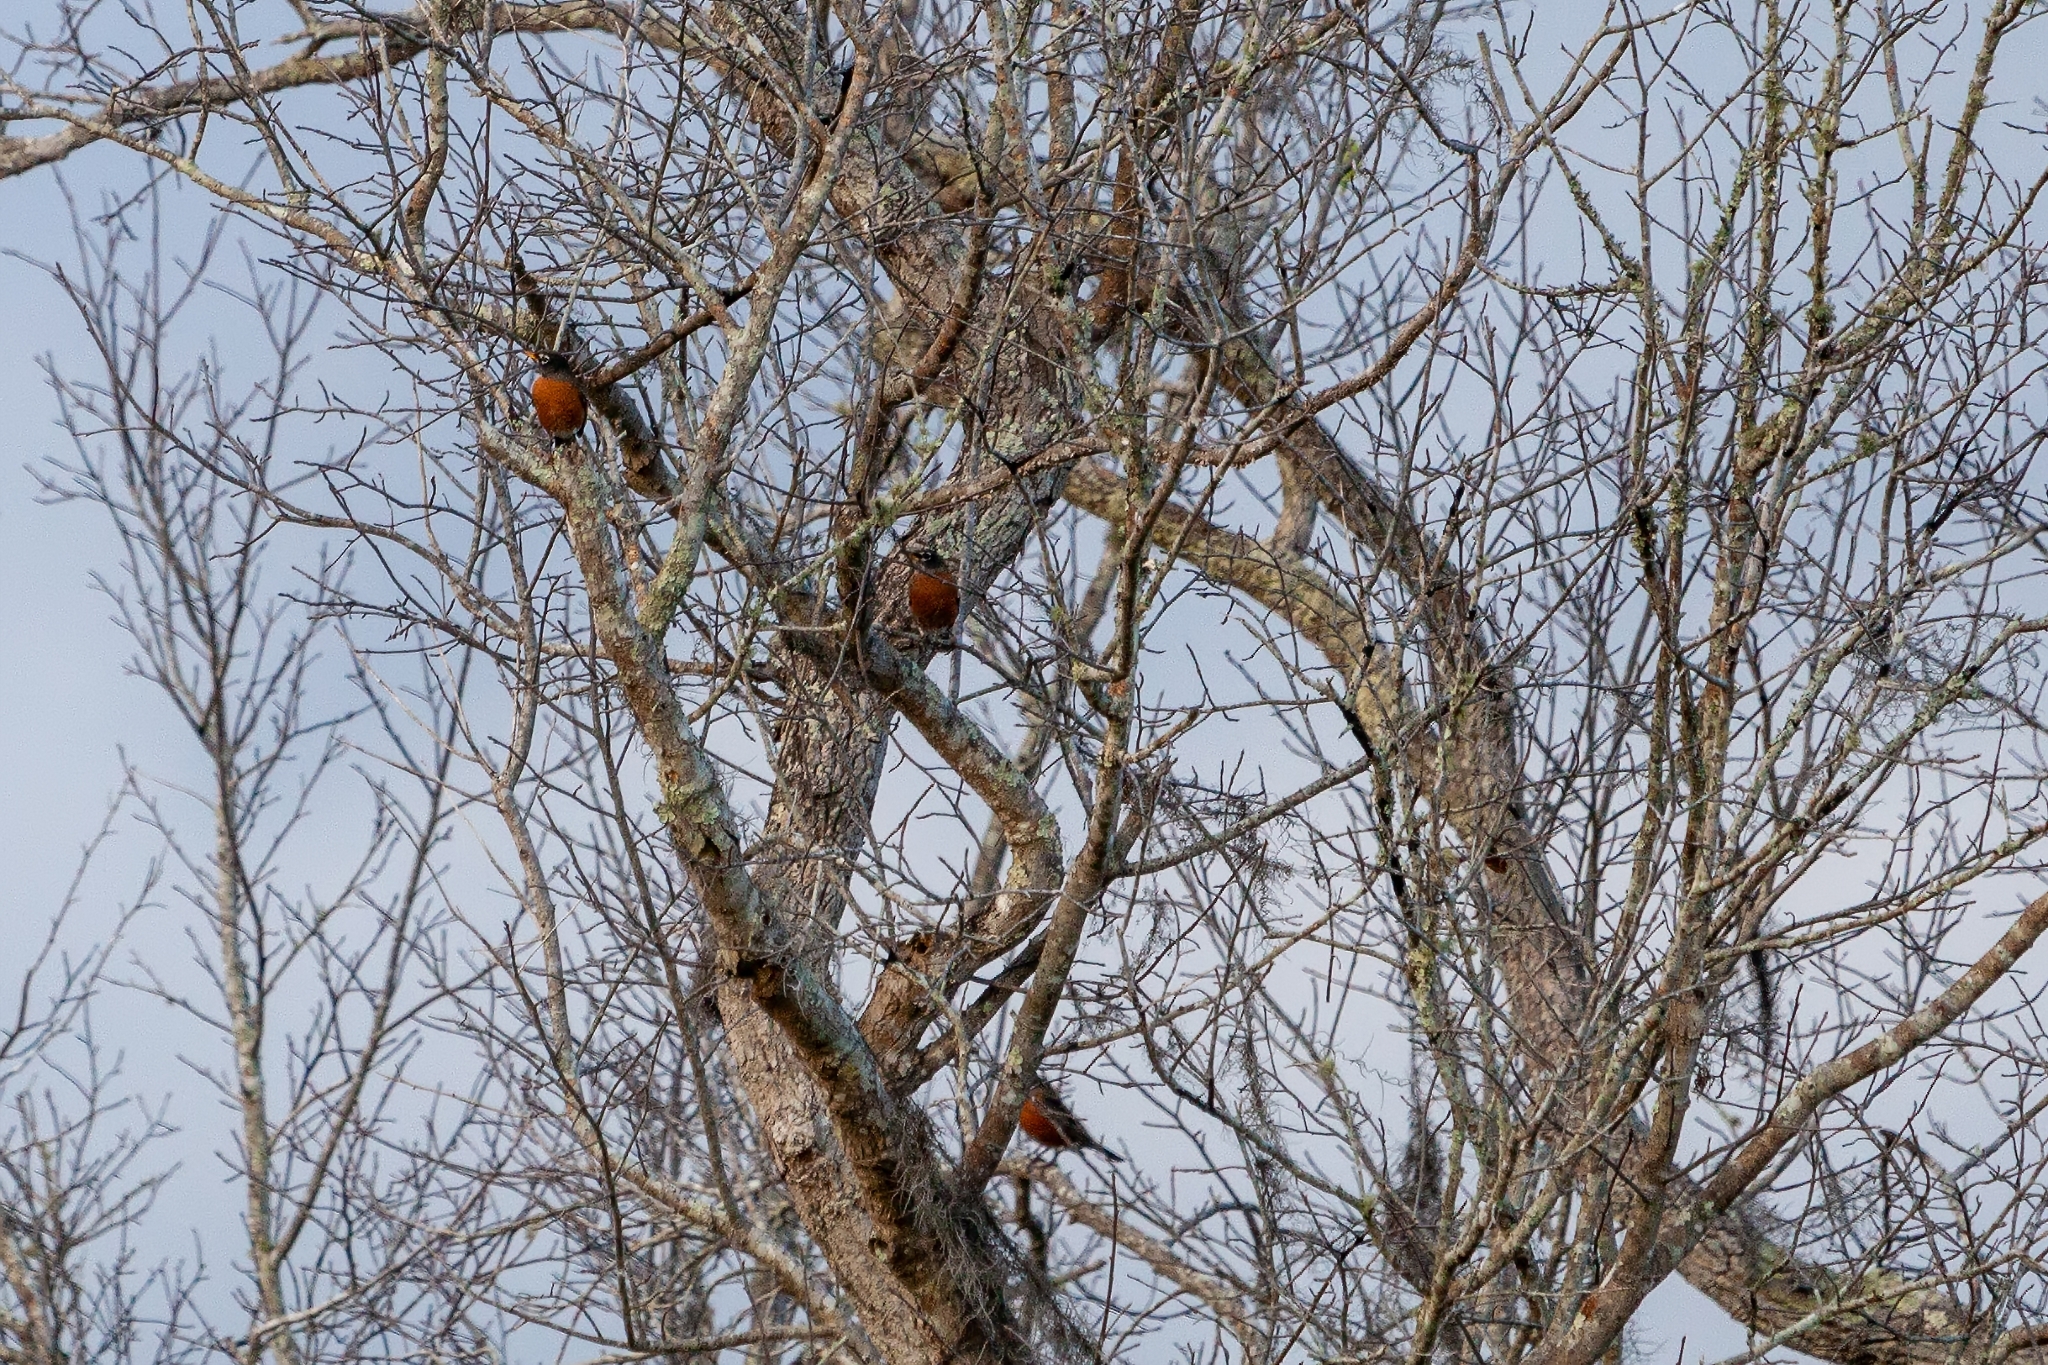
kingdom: Animalia
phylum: Chordata
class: Aves
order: Passeriformes
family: Turdidae
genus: Turdus
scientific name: Turdus migratorius
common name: American robin
